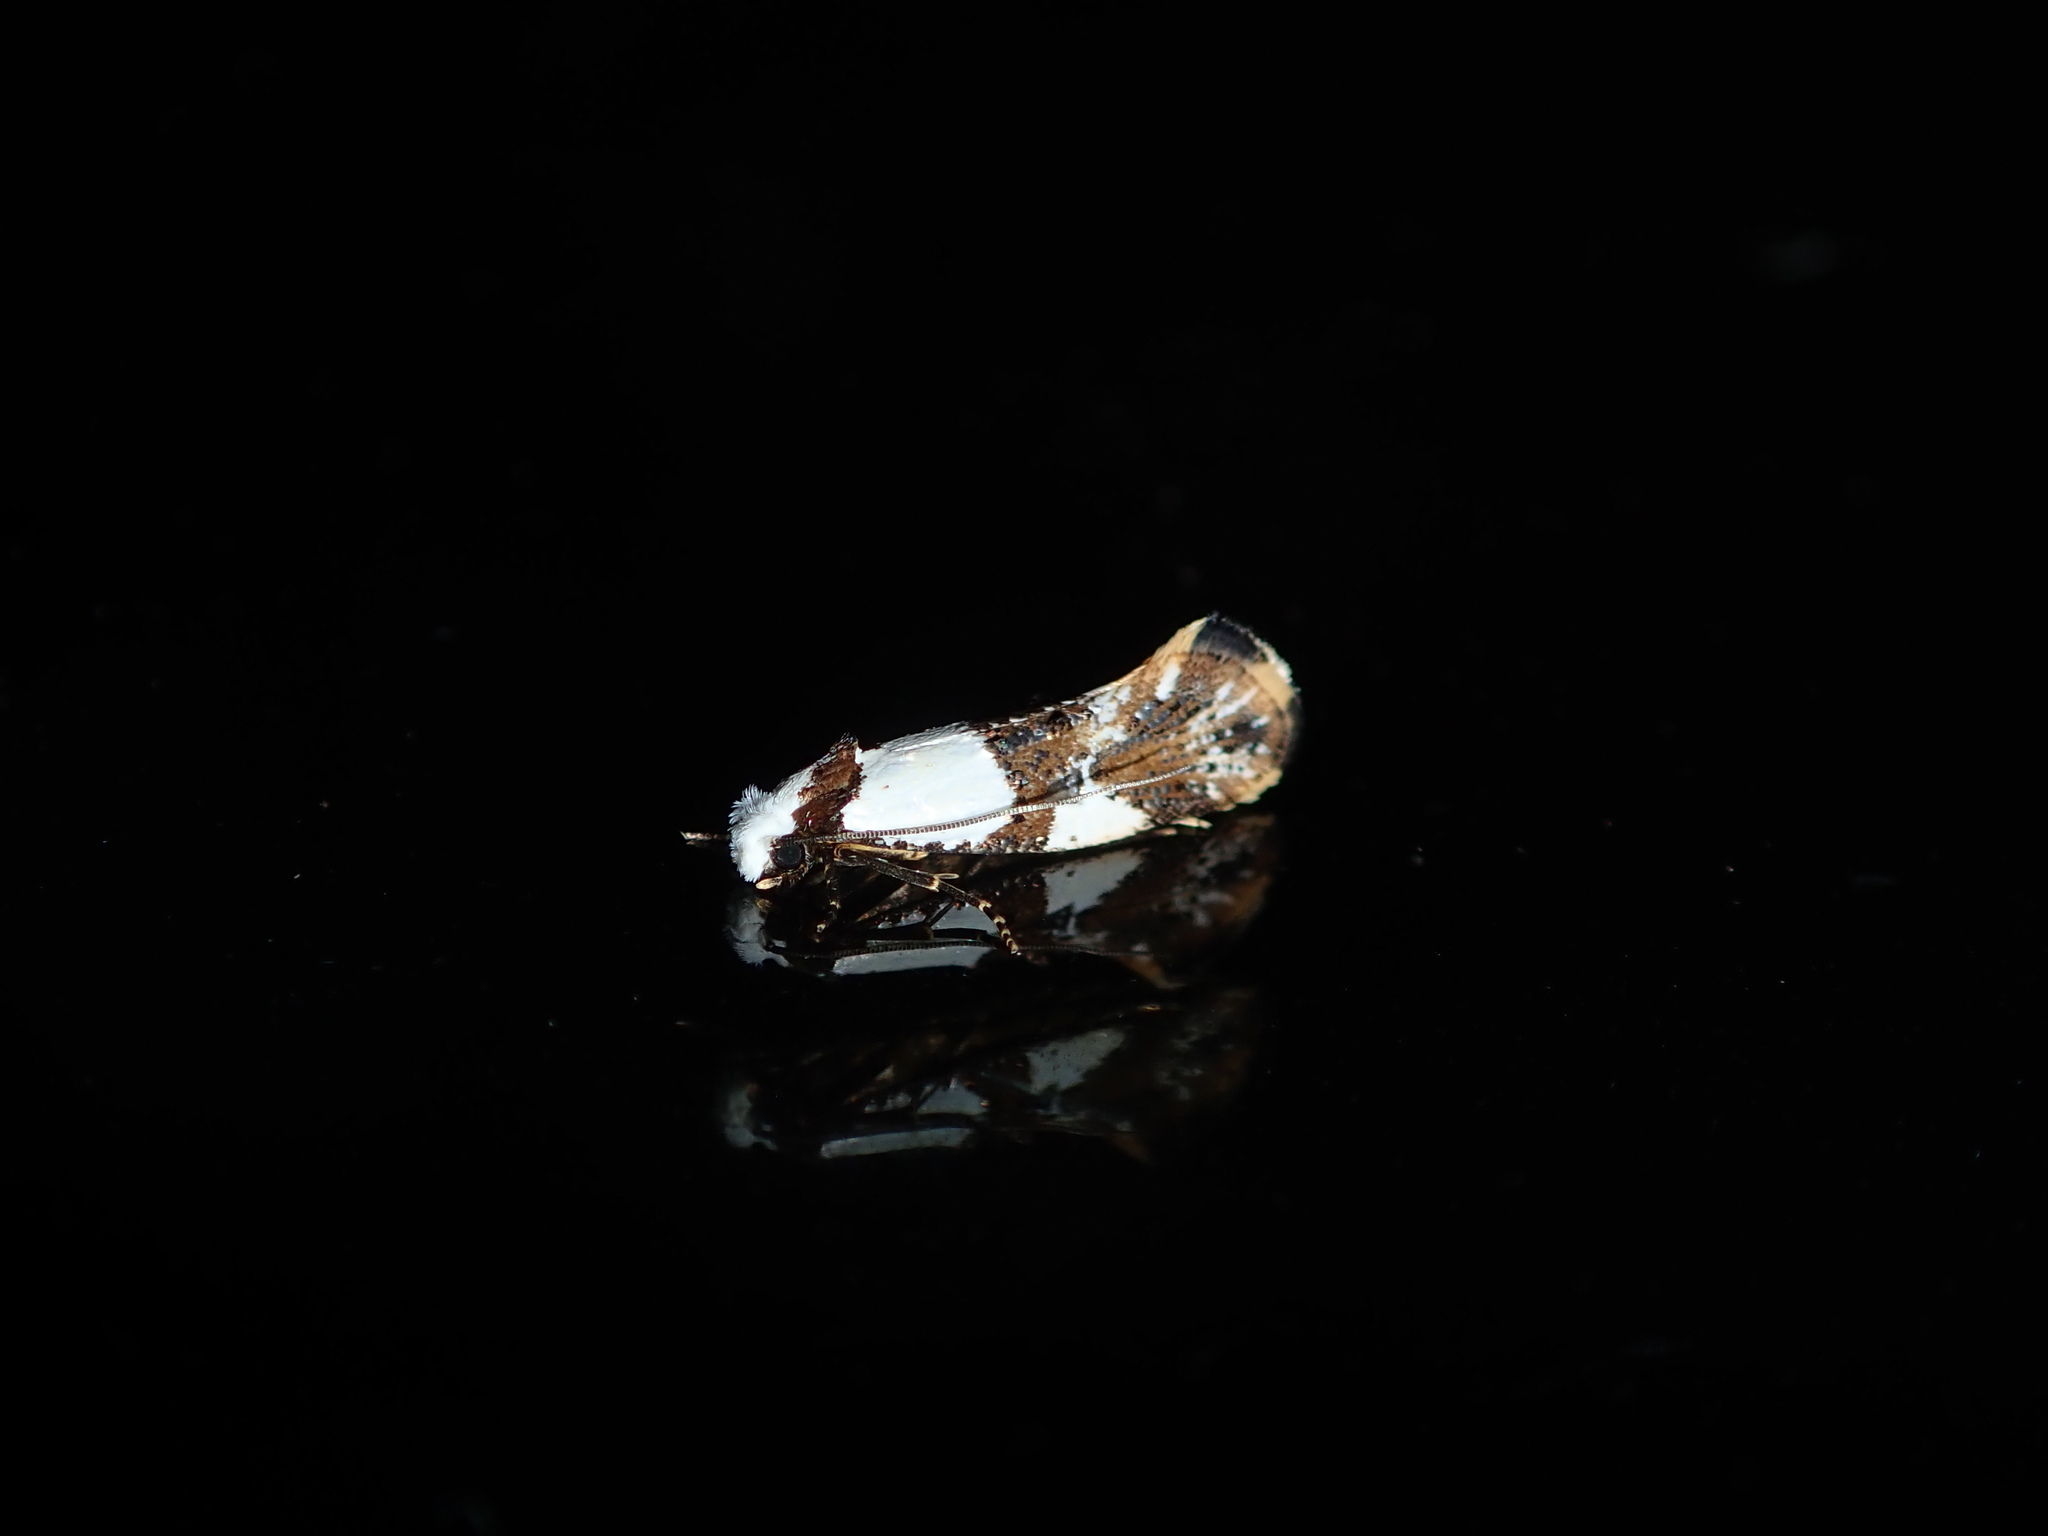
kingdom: Animalia
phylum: Arthropoda
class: Insecta
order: Lepidoptera
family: Tineidae
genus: Monopis
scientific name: Monopis meliorella
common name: Blotched monopis moth
